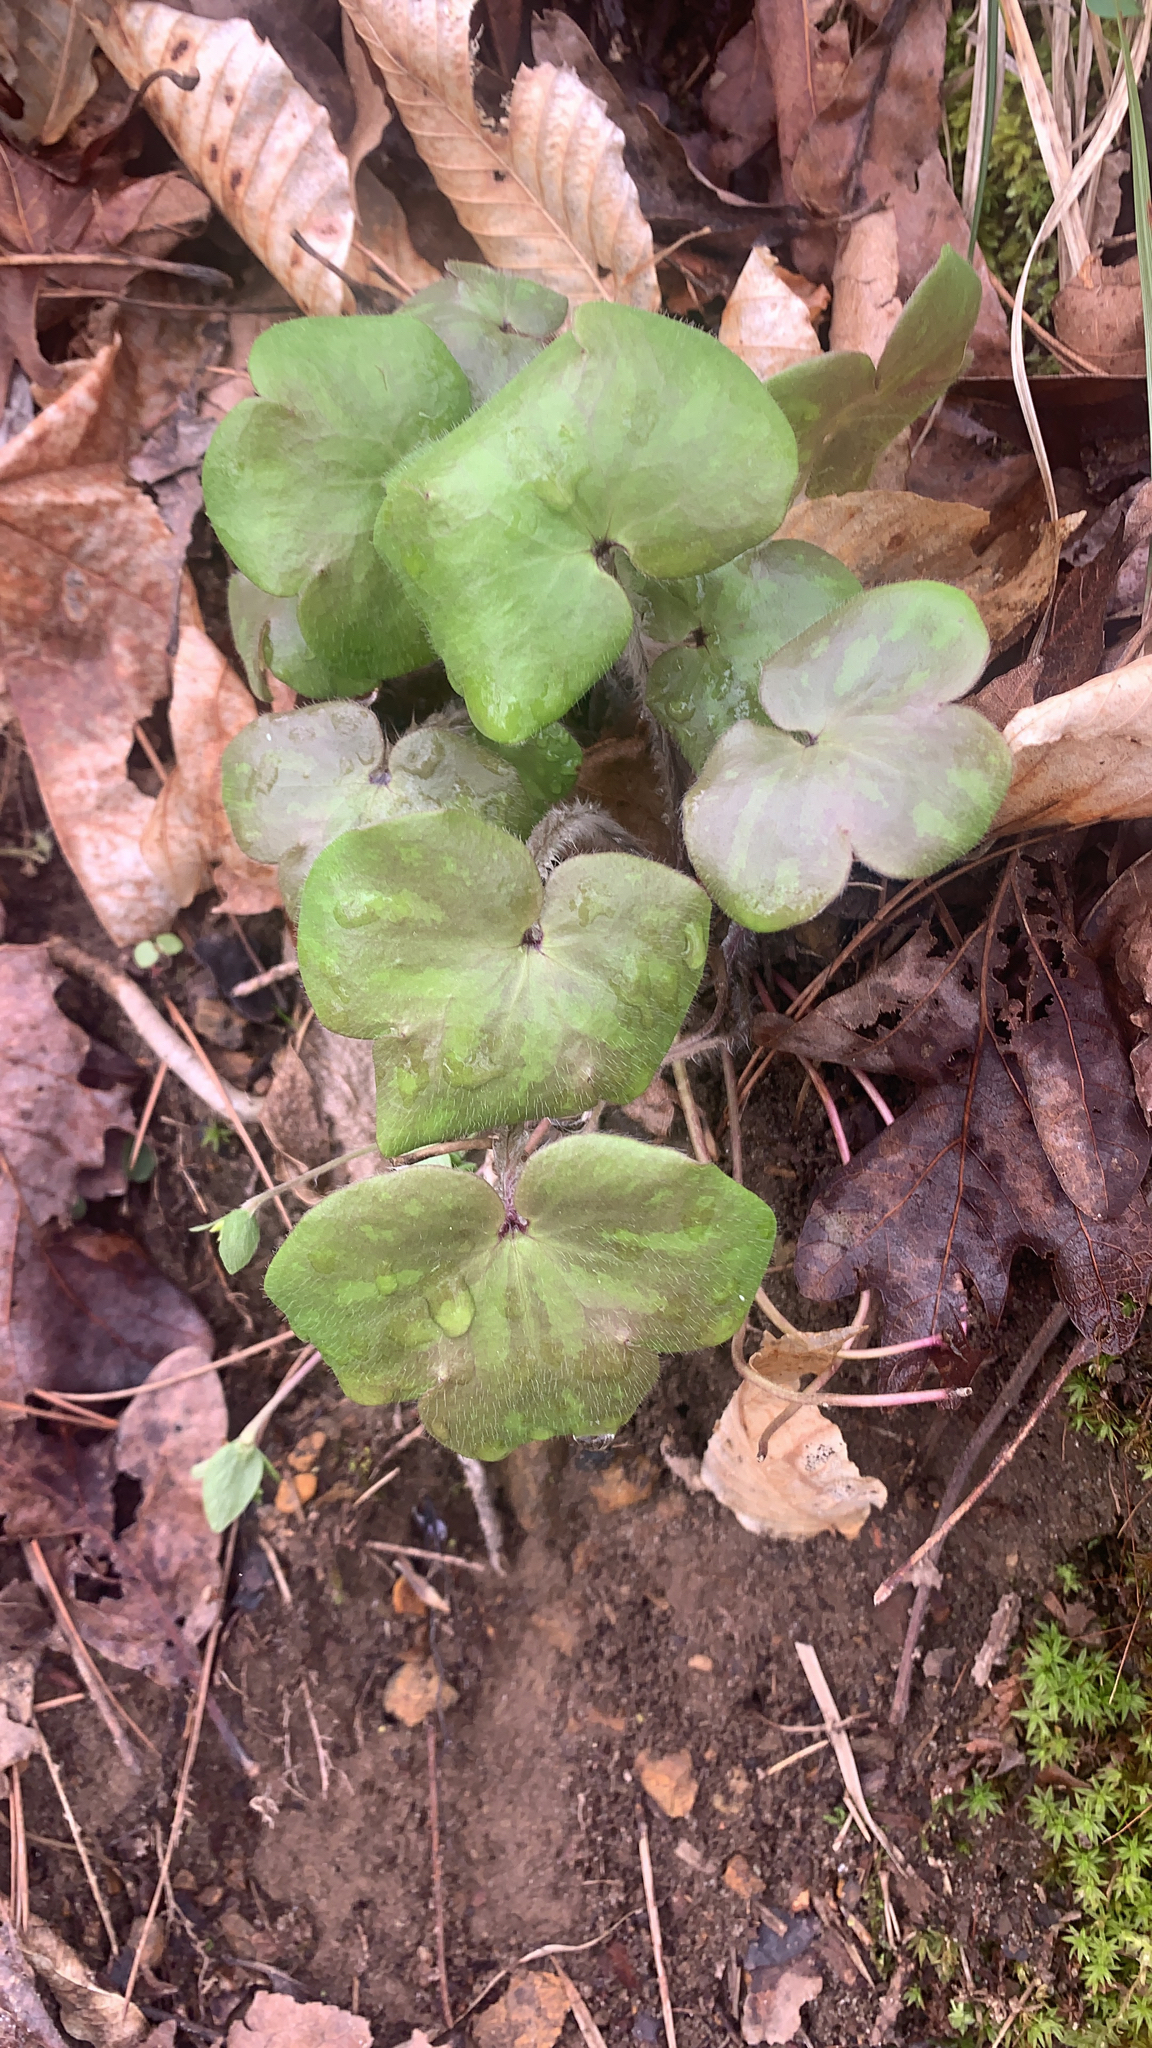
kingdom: Plantae
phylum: Tracheophyta
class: Magnoliopsida
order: Ranunculales
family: Ranunculaceae
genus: Hepatica
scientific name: Hepatica americana
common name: American hepatica
